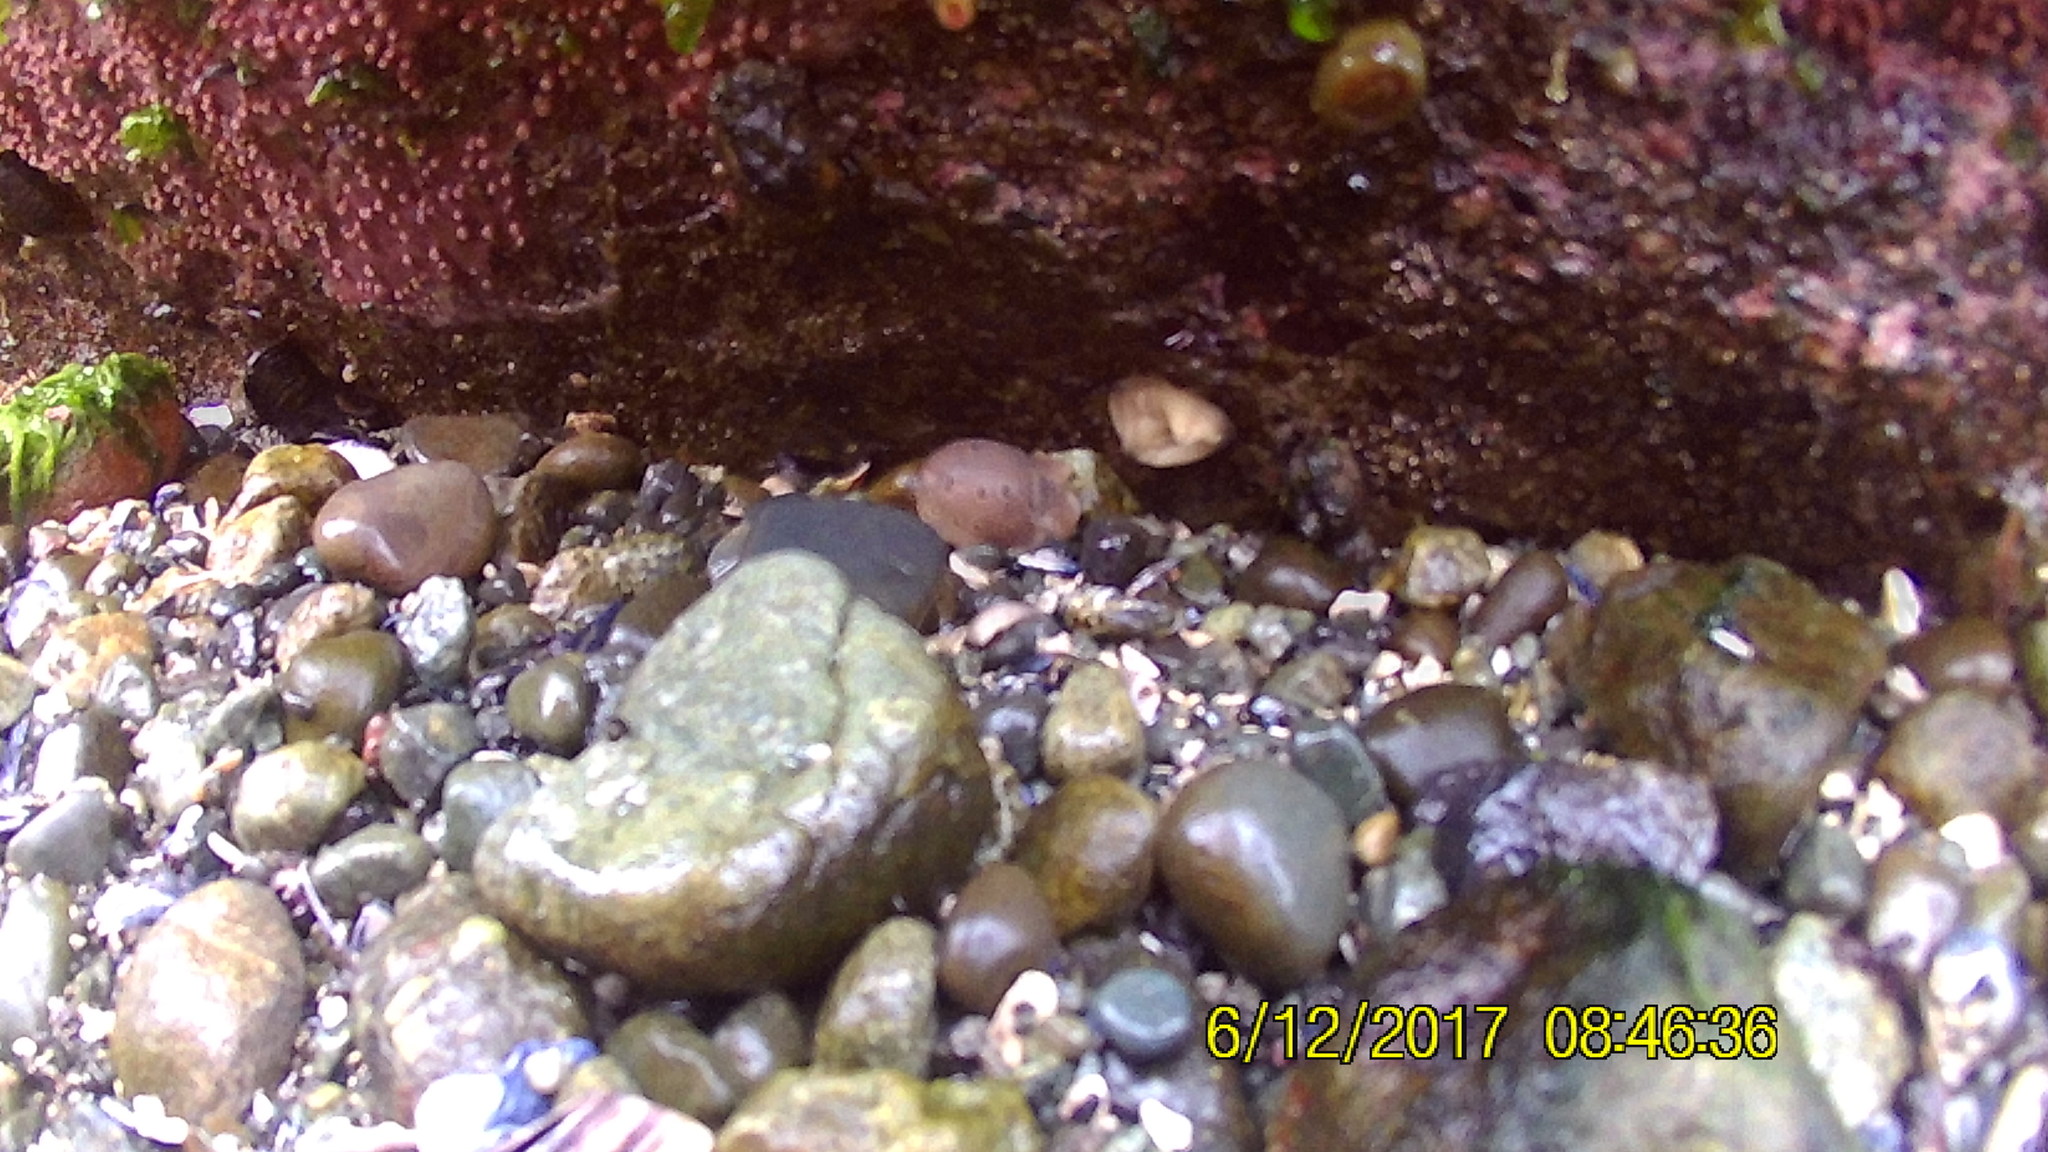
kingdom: Animalia
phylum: Mollusca
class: Gastropoda
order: Nudibranchia
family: Discodorididae
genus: Diaulula
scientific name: Diaulula odonoghuei
